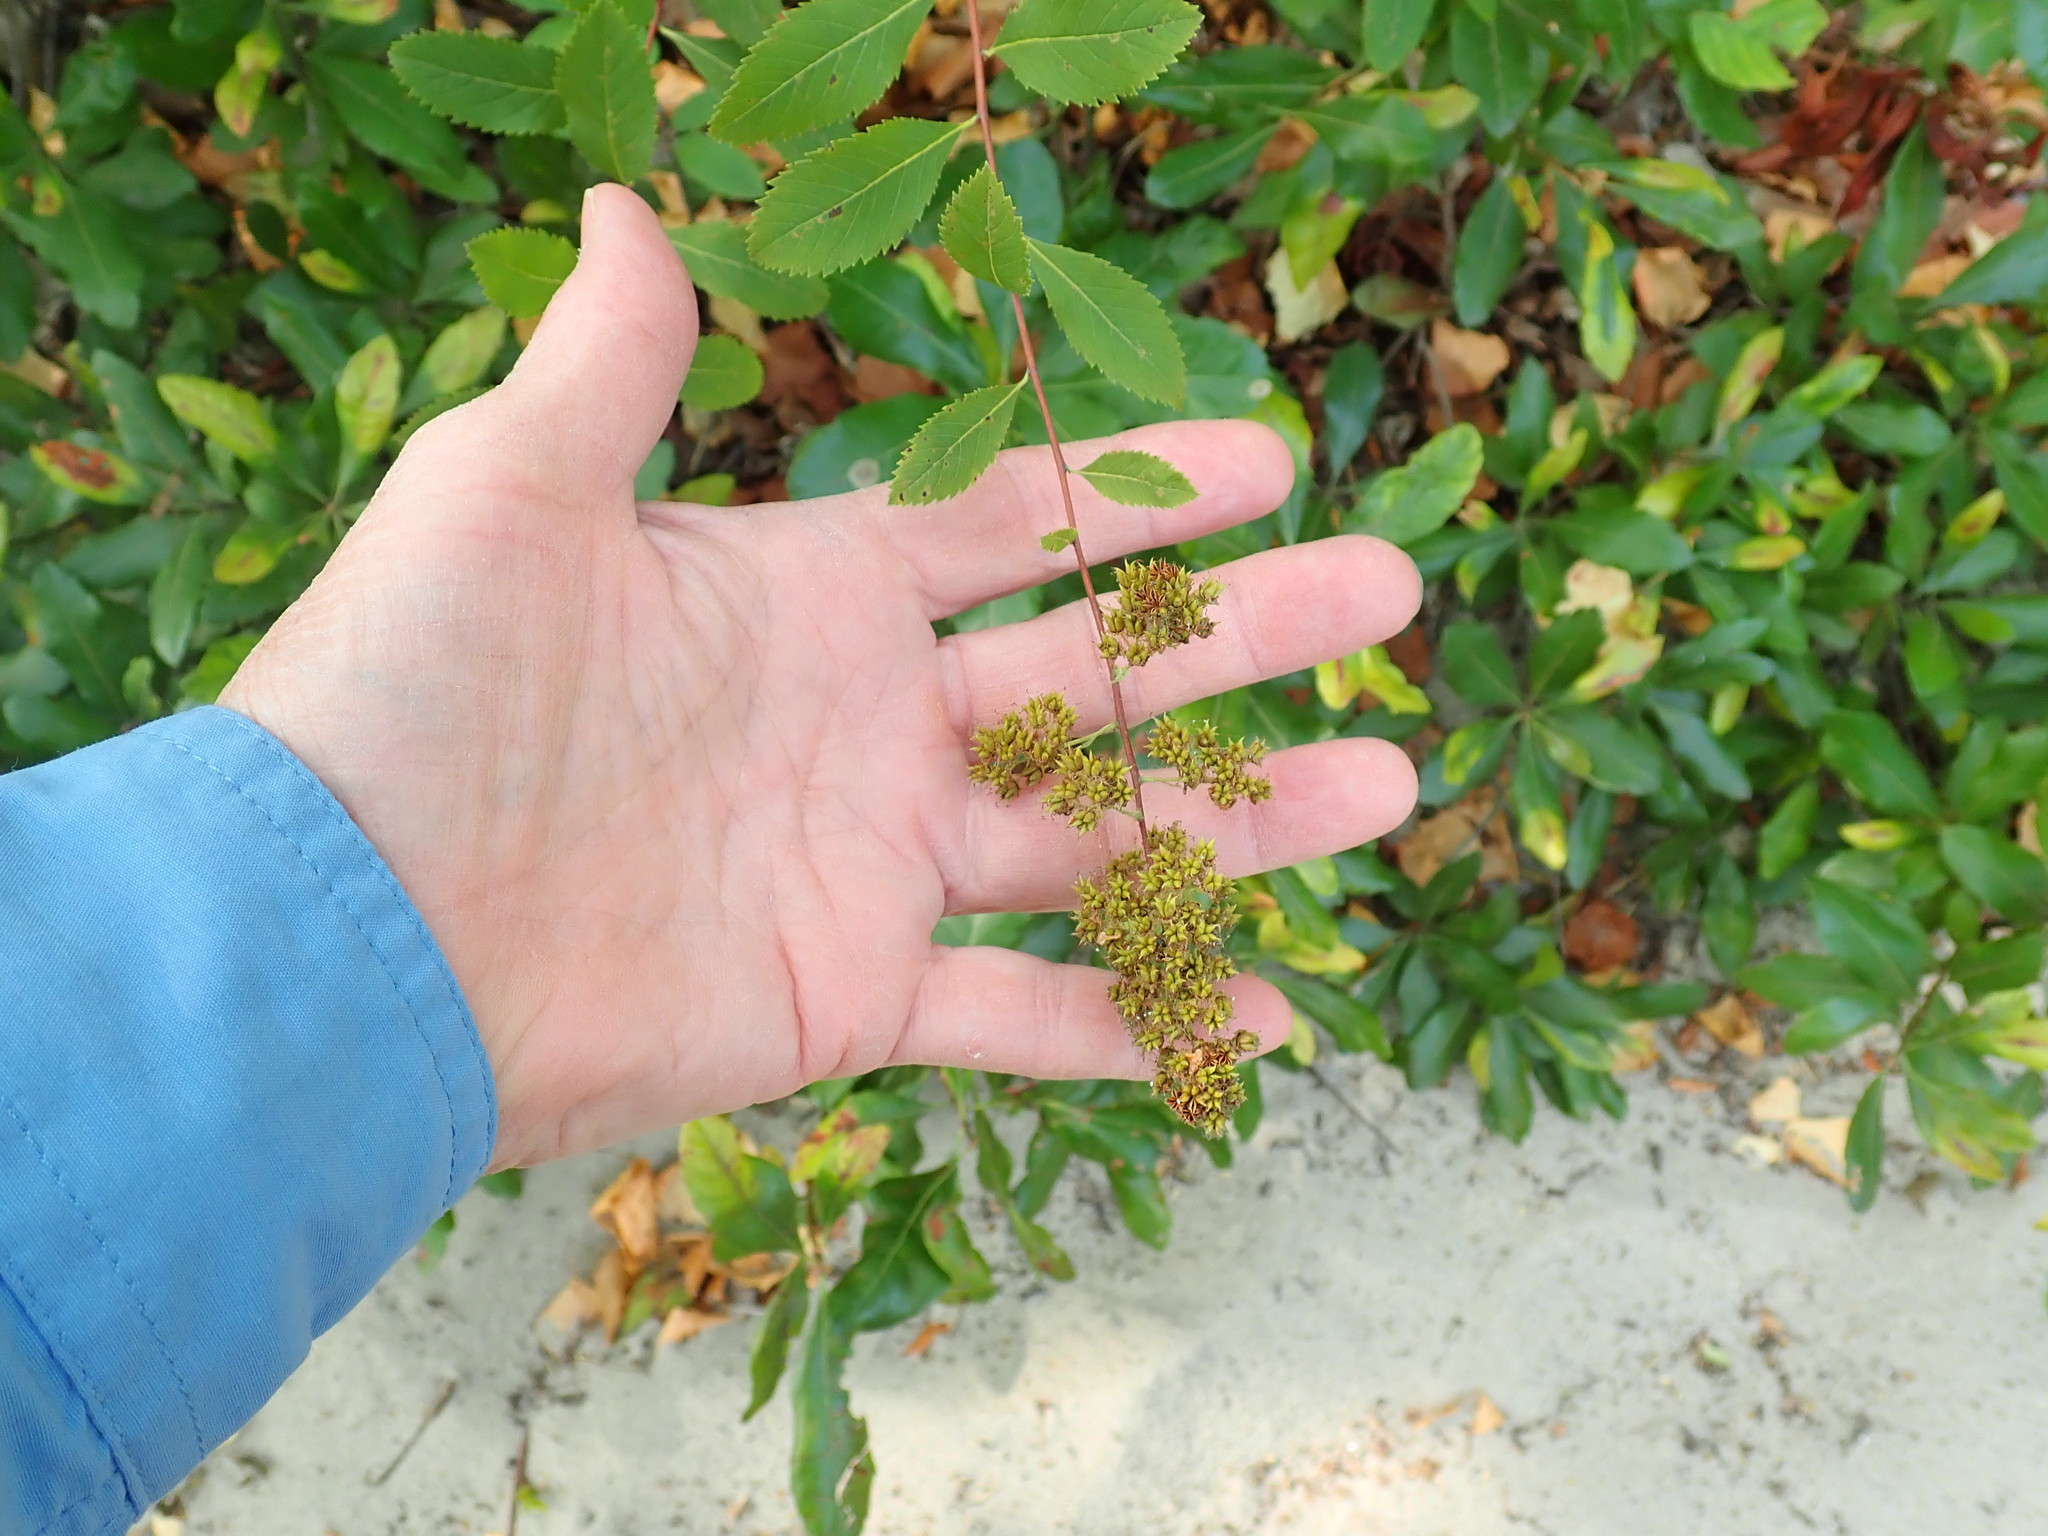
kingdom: Plantae
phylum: Tracheophyta
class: Magnoliopsida
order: Rosales
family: Rosaceae
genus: Spiraea
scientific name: Spiraea alba
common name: Pale bridewort
